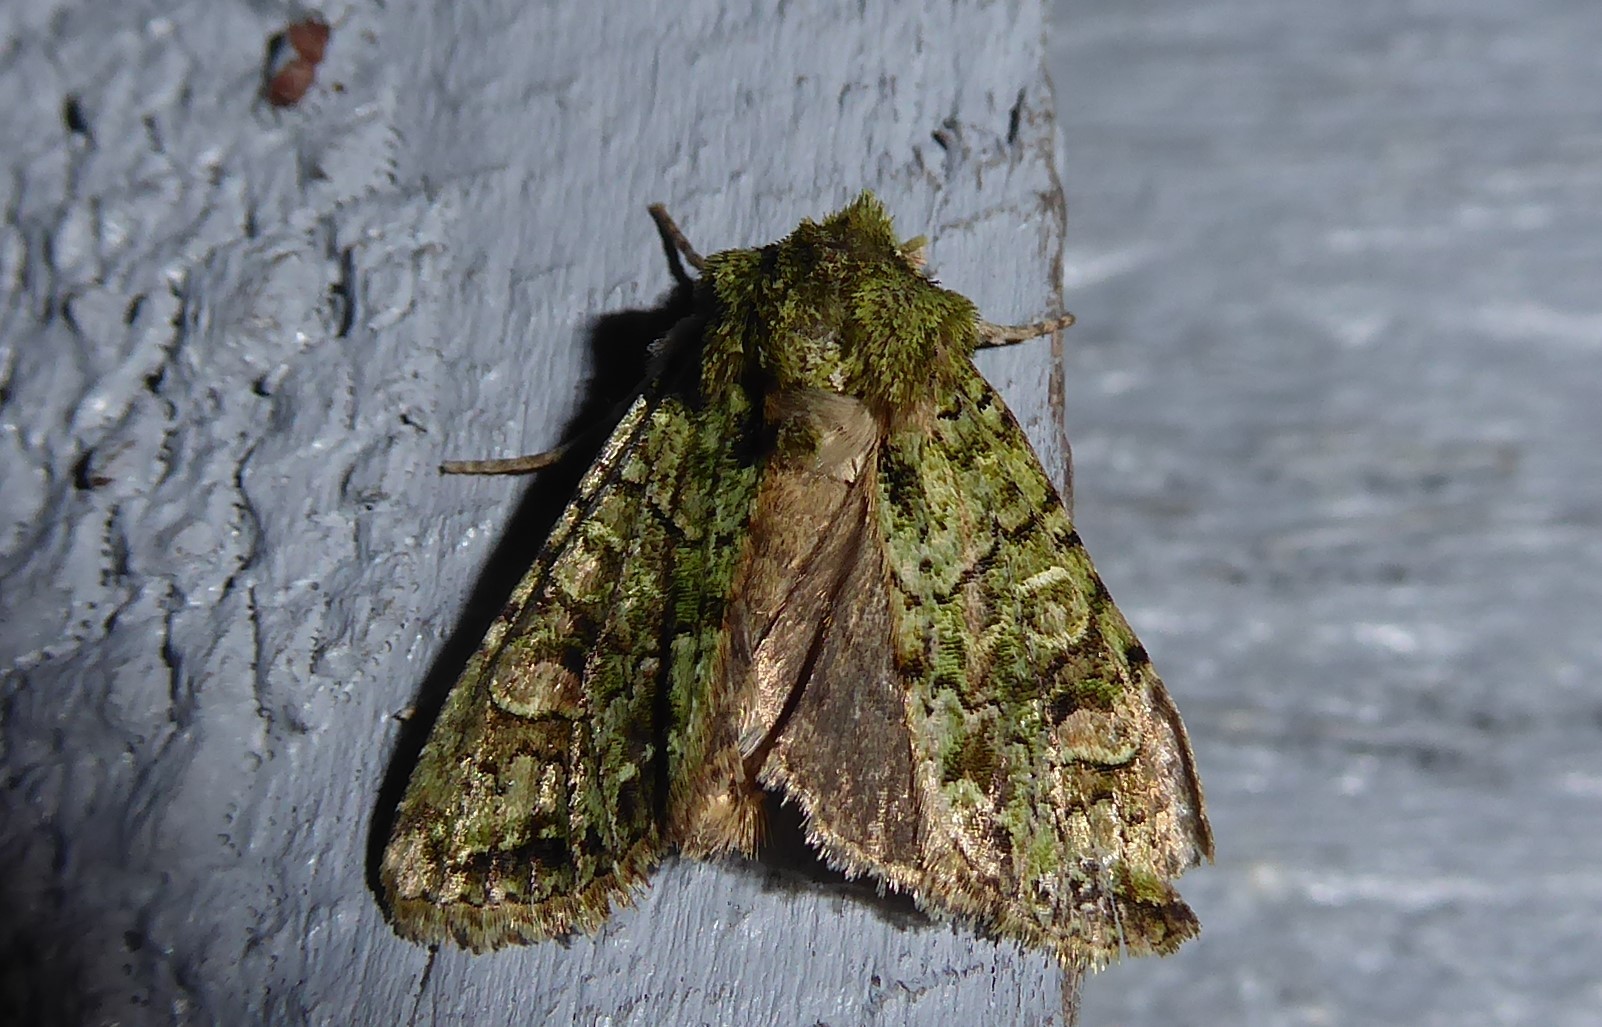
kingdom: Animalia
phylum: Arthropoda
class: Insecta
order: Lepidoptera
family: Noctuidae
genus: Ichneutica
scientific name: Ichneutica
